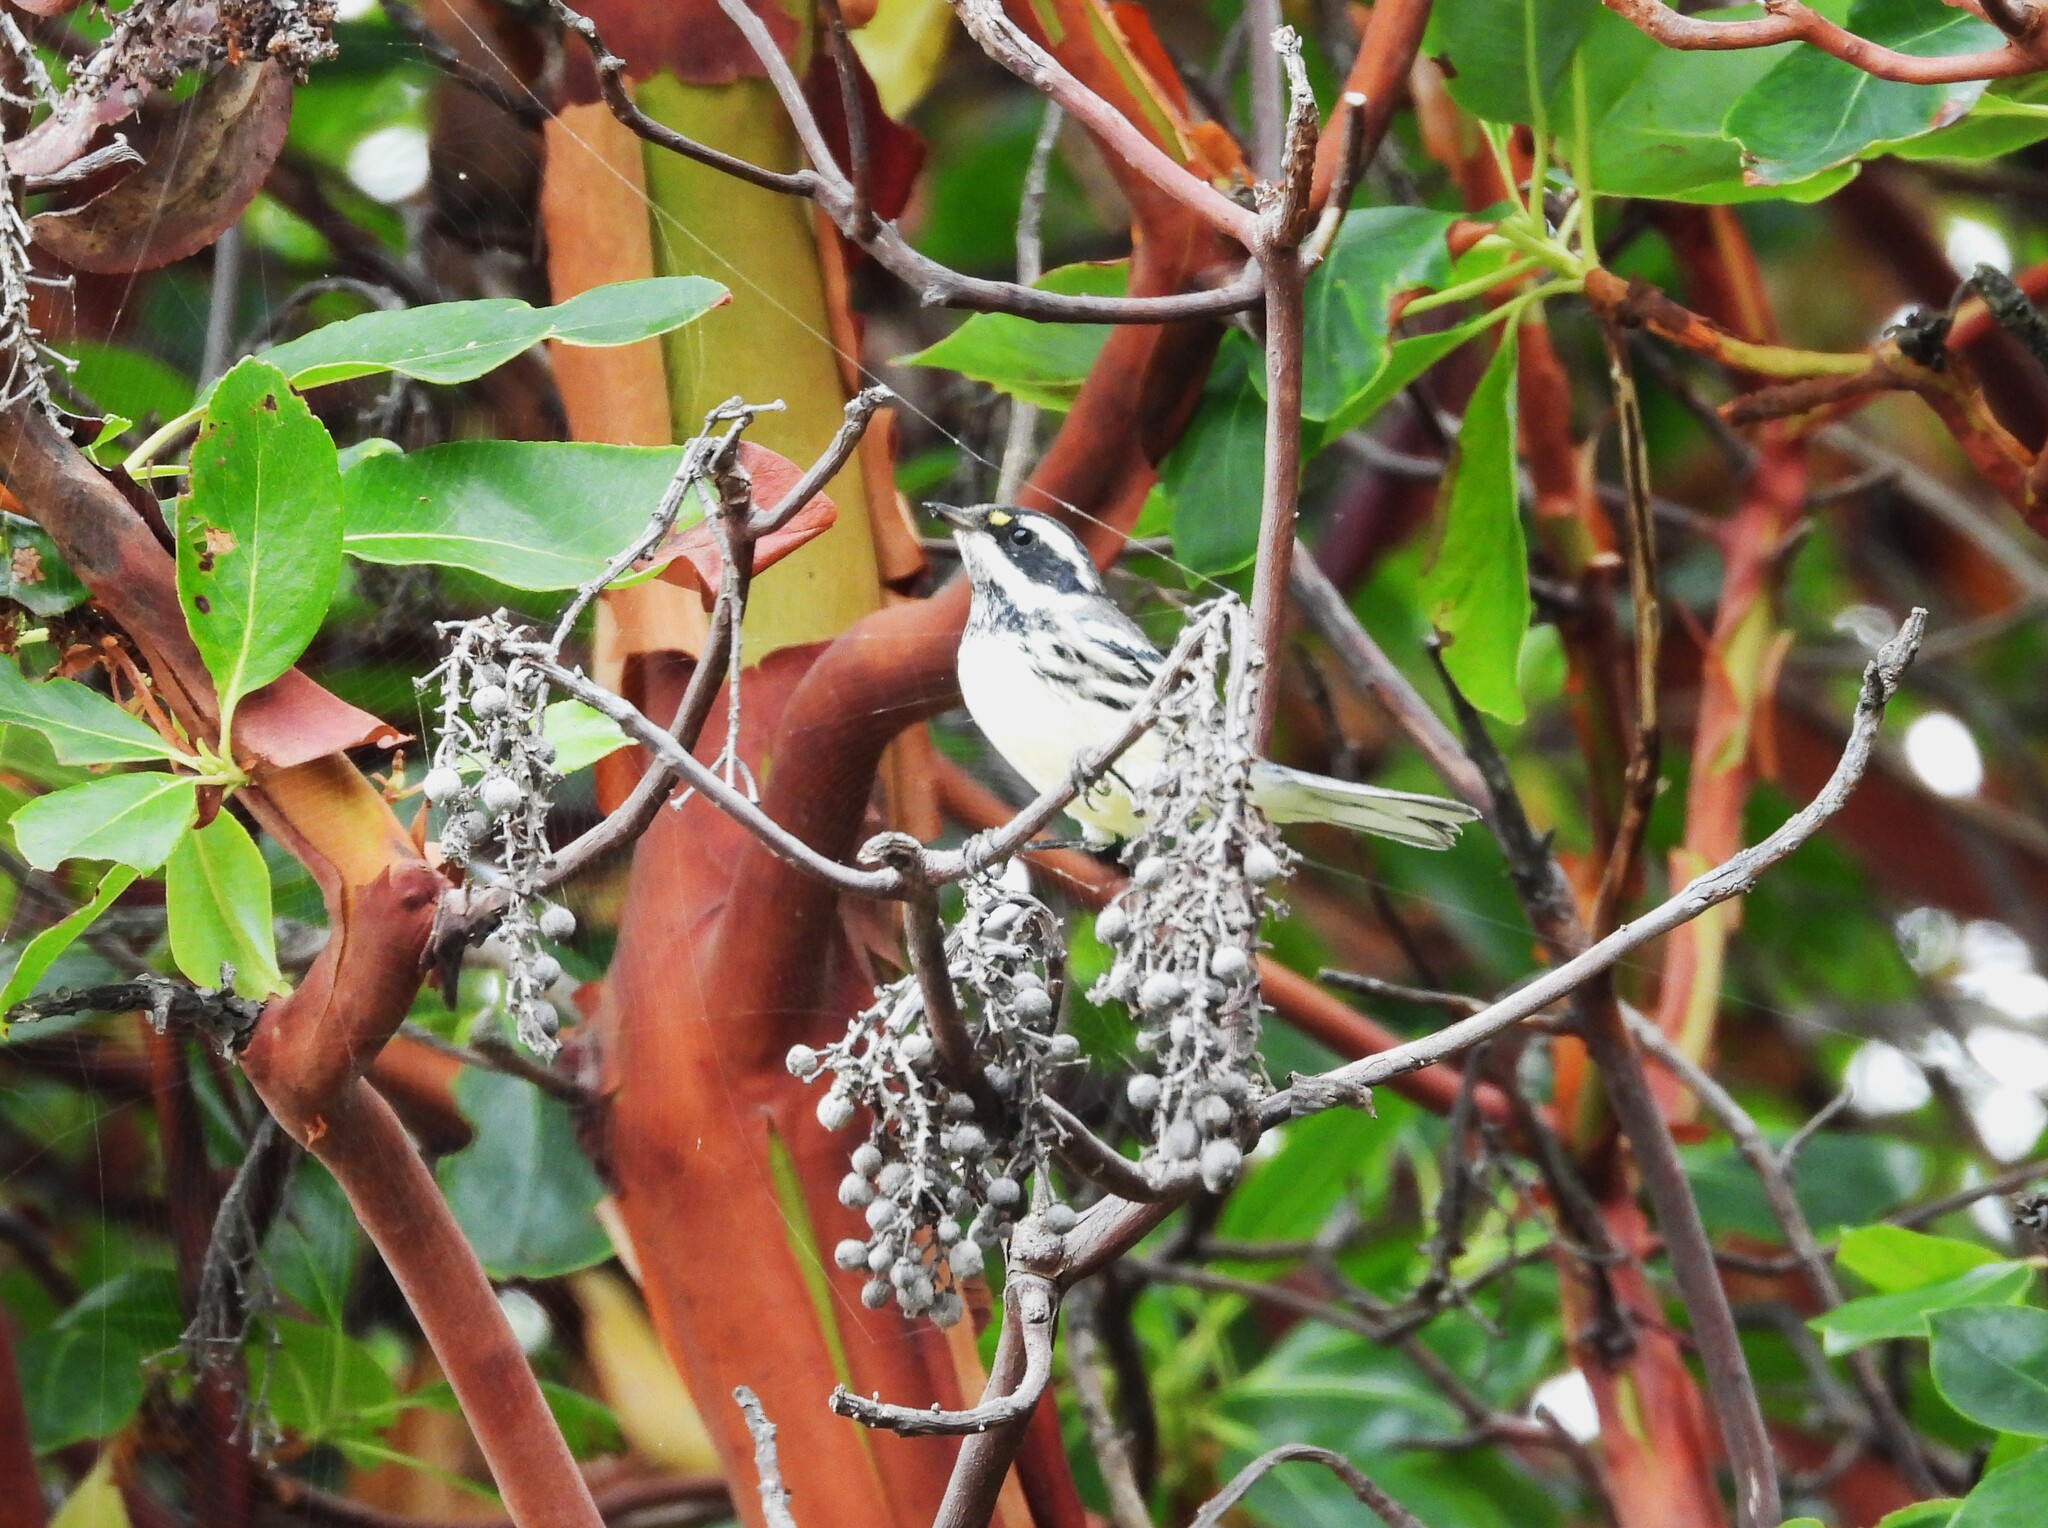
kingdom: Animalia
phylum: Chordata
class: Aves
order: Passeriformes
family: Parulidae
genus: Setophaga
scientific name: Setophaga nigrescens
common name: Black-throated gray warbler
